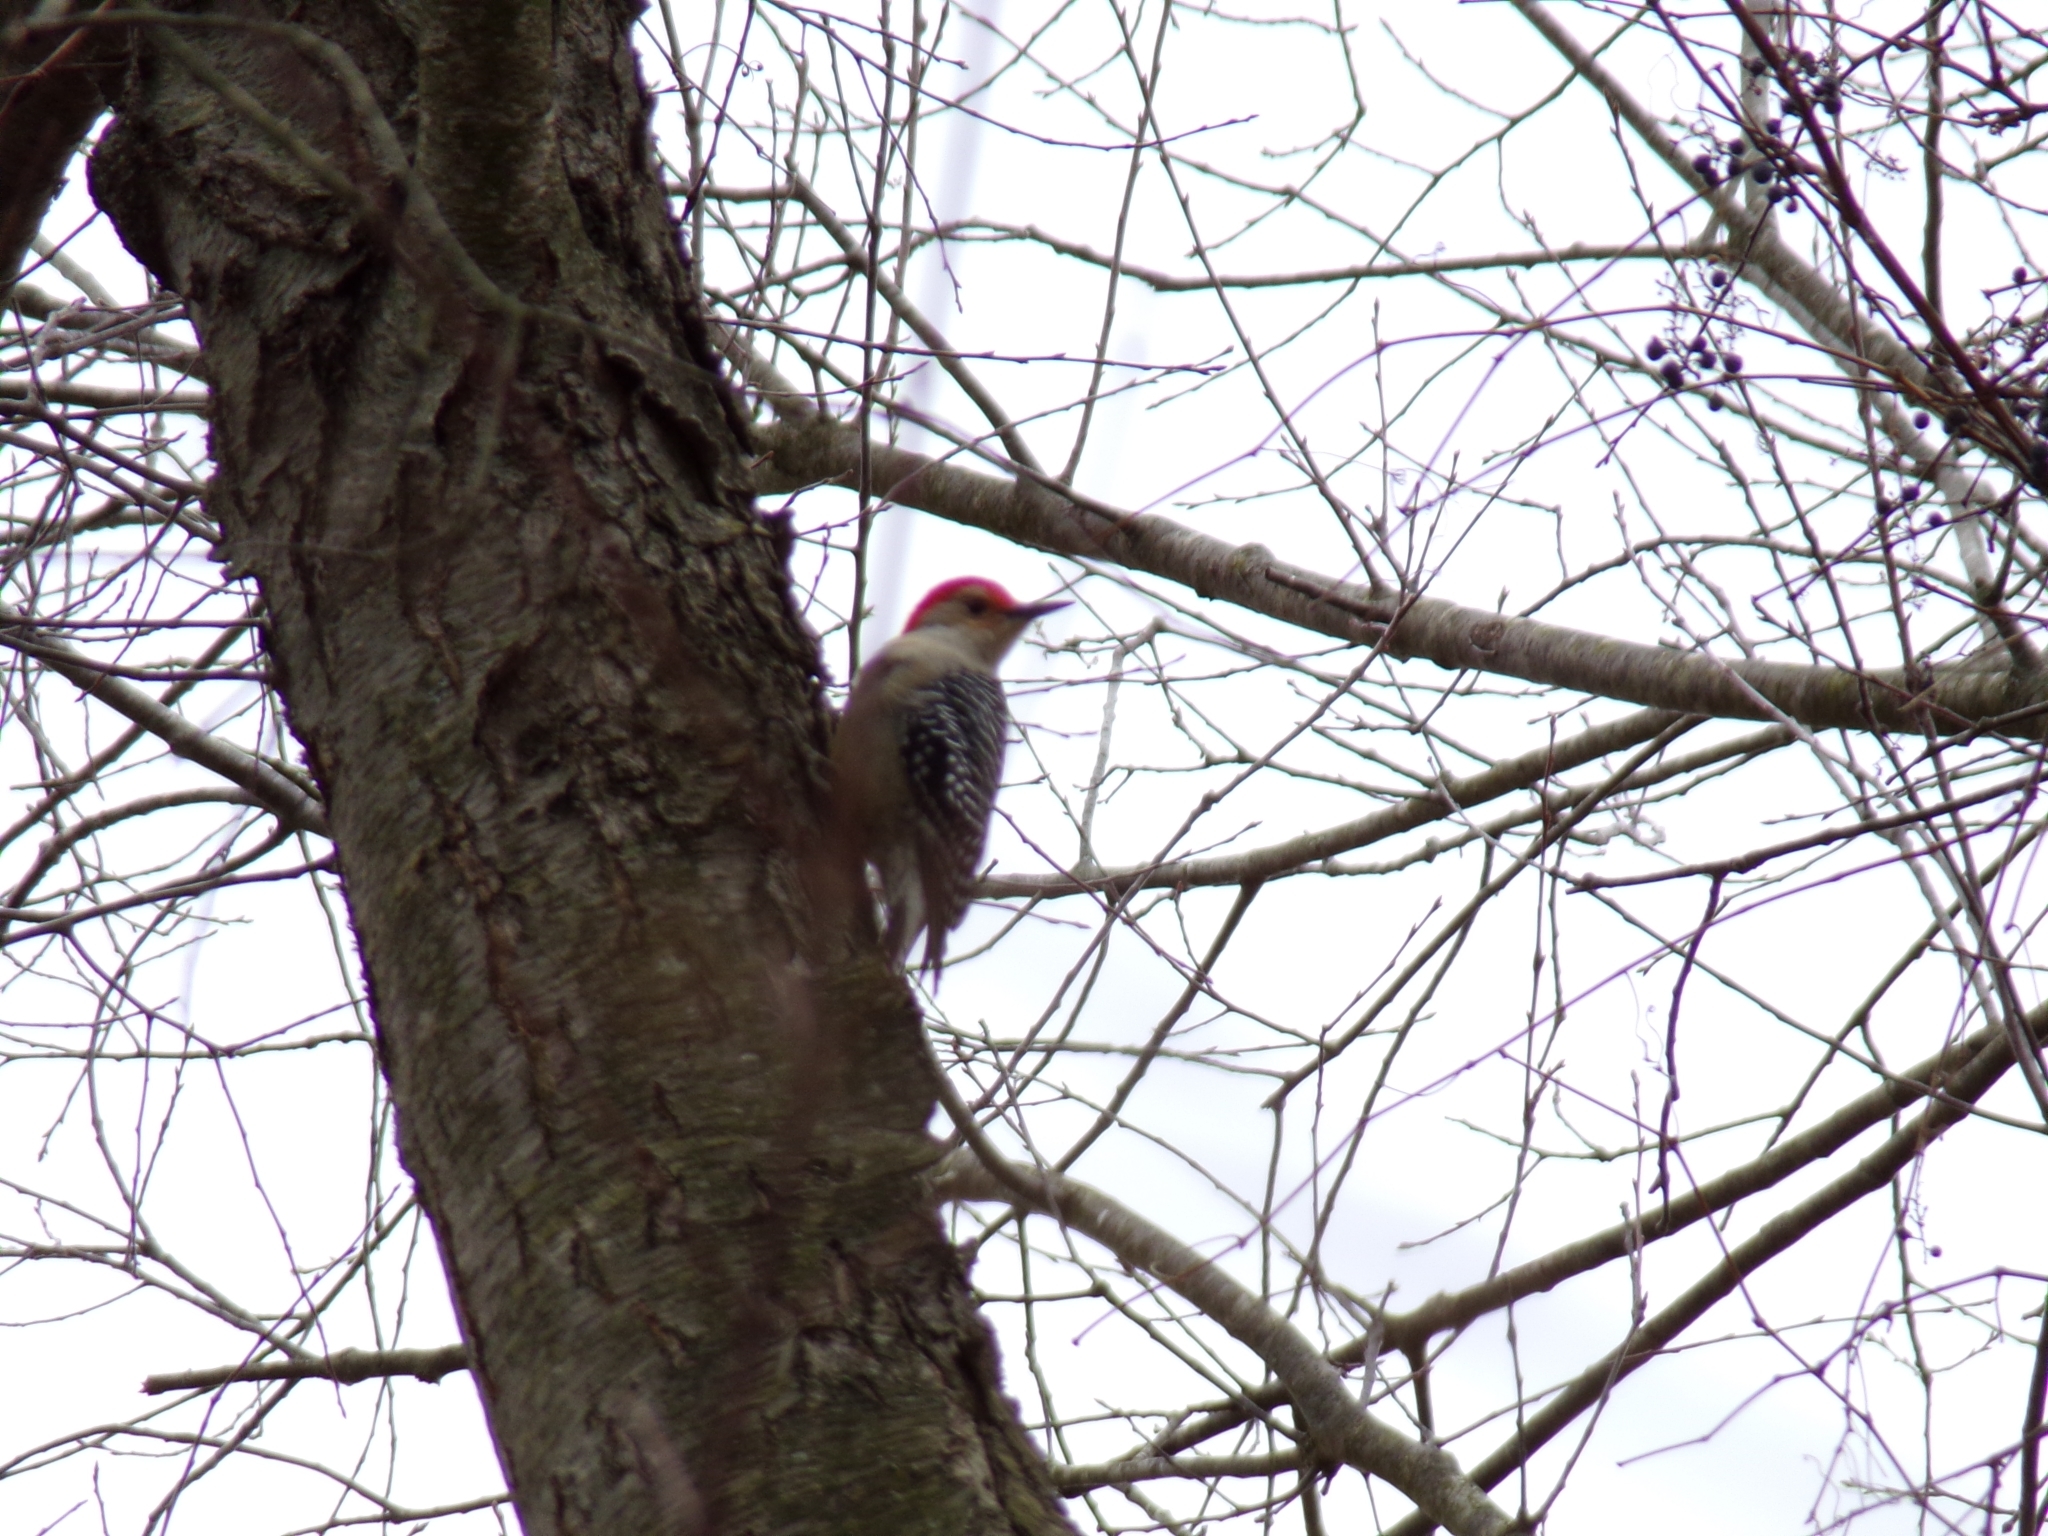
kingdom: Animalia
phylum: Chordata
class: Aves
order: Piciformes
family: Picidae
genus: Melanerpes
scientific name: Melanerpes carolinus
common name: Red-bellied woodpecker
